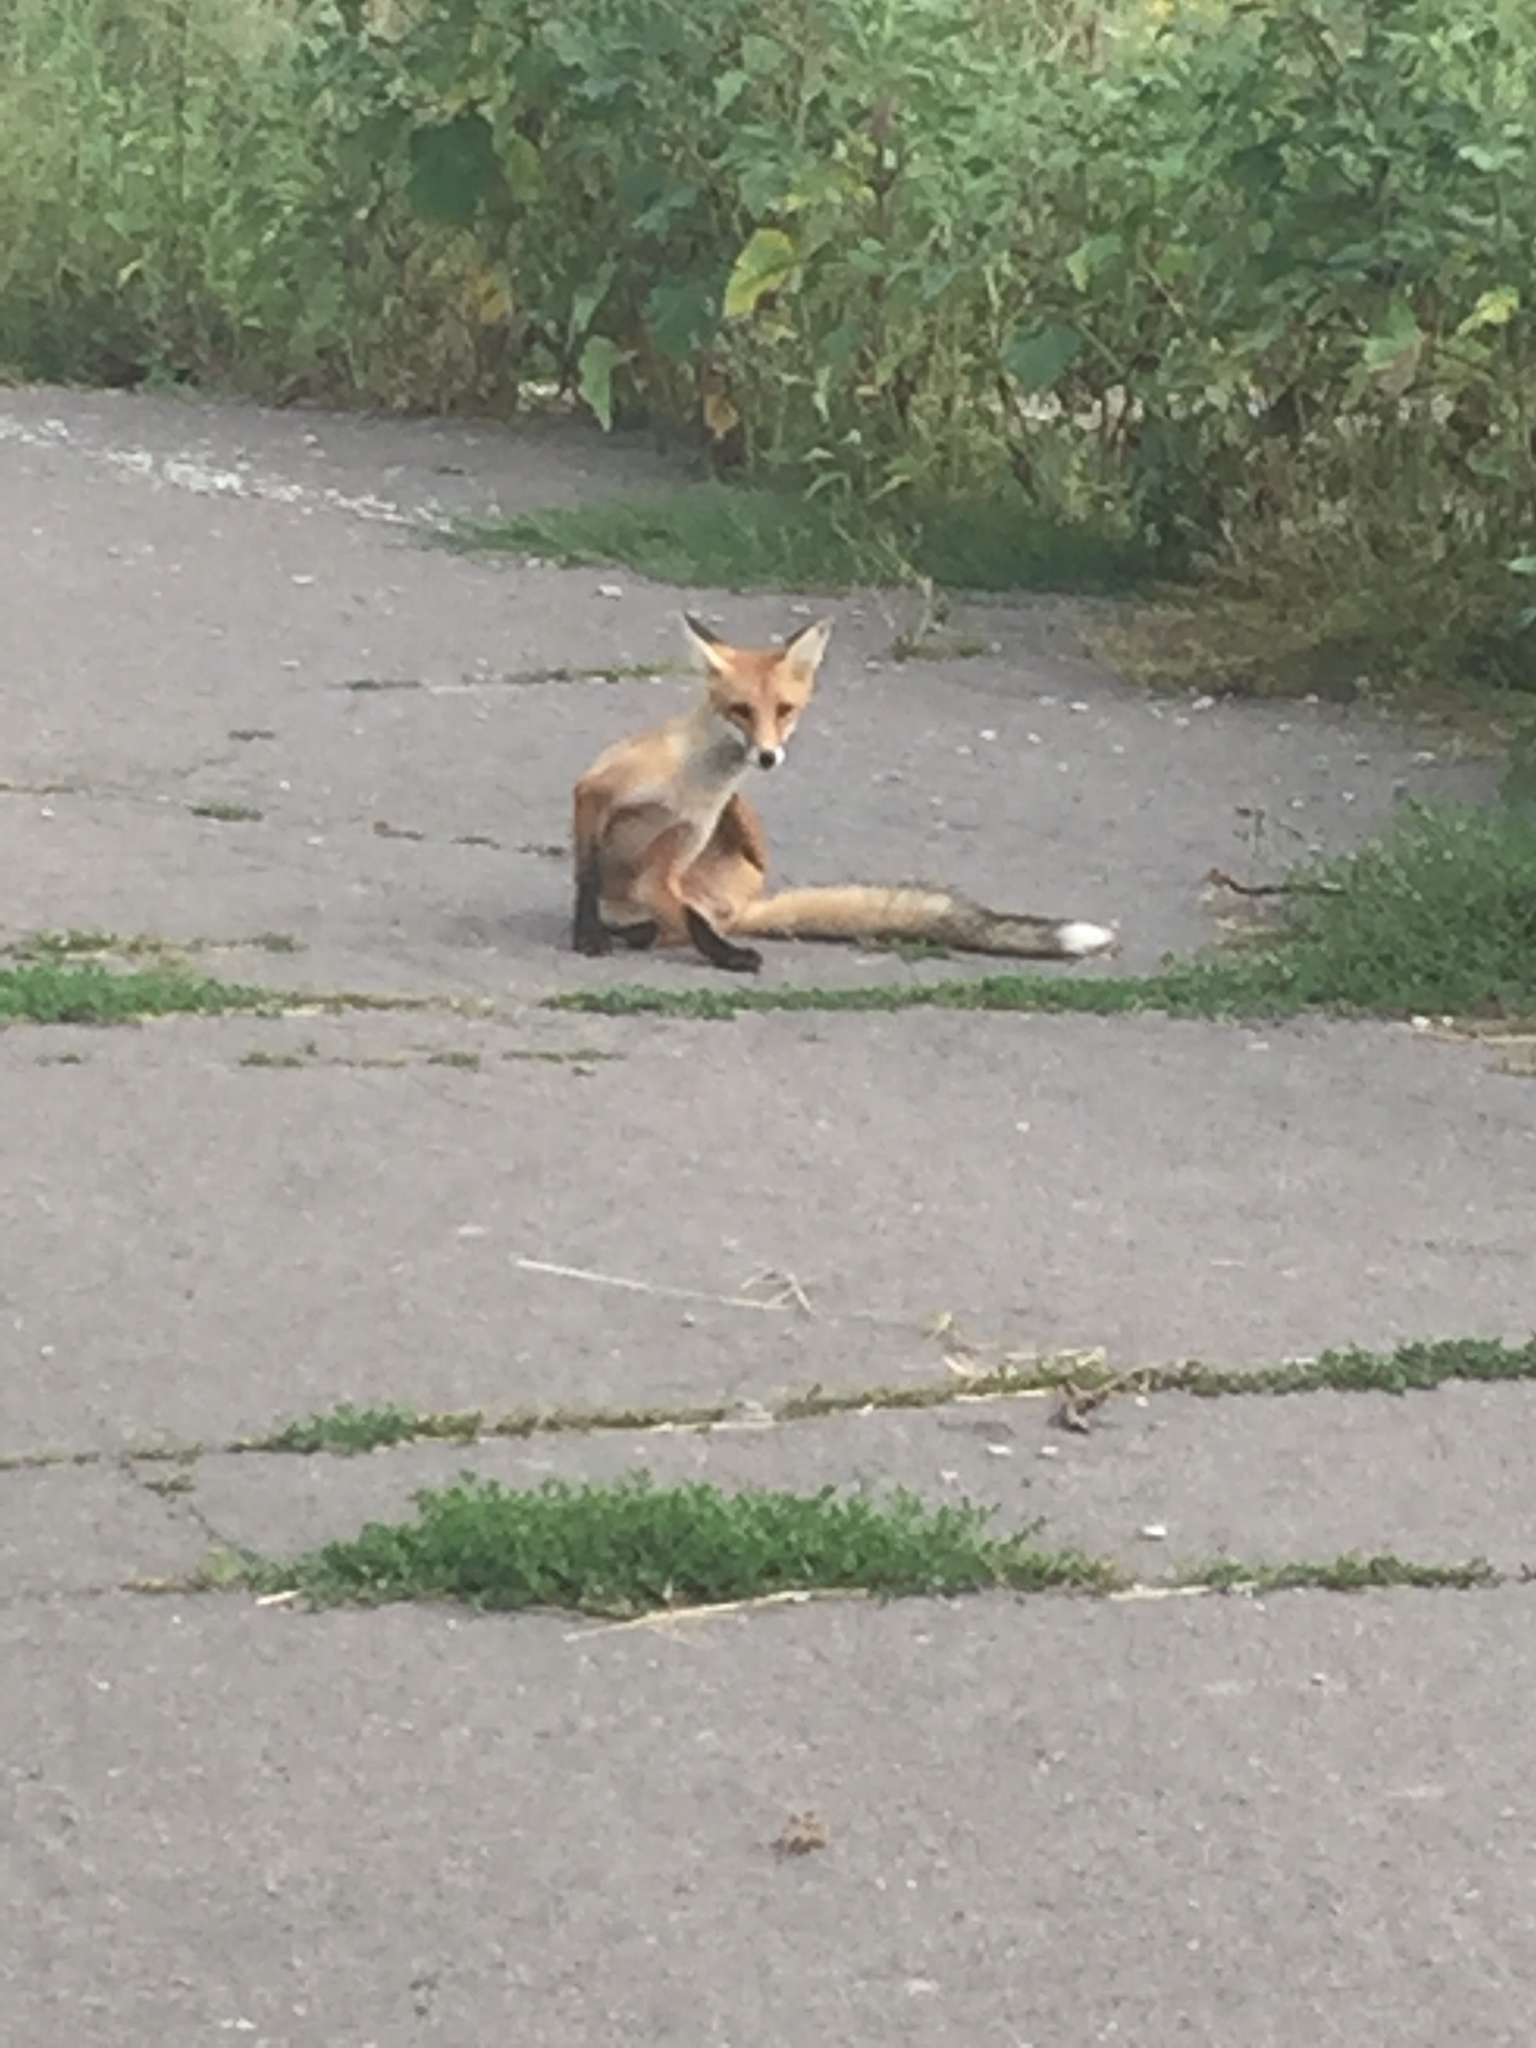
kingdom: Animalia
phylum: Chordata
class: Mammalia
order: Carnivora
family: Canidae
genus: Vulpes
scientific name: Vulpes vulpes
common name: Red fox
